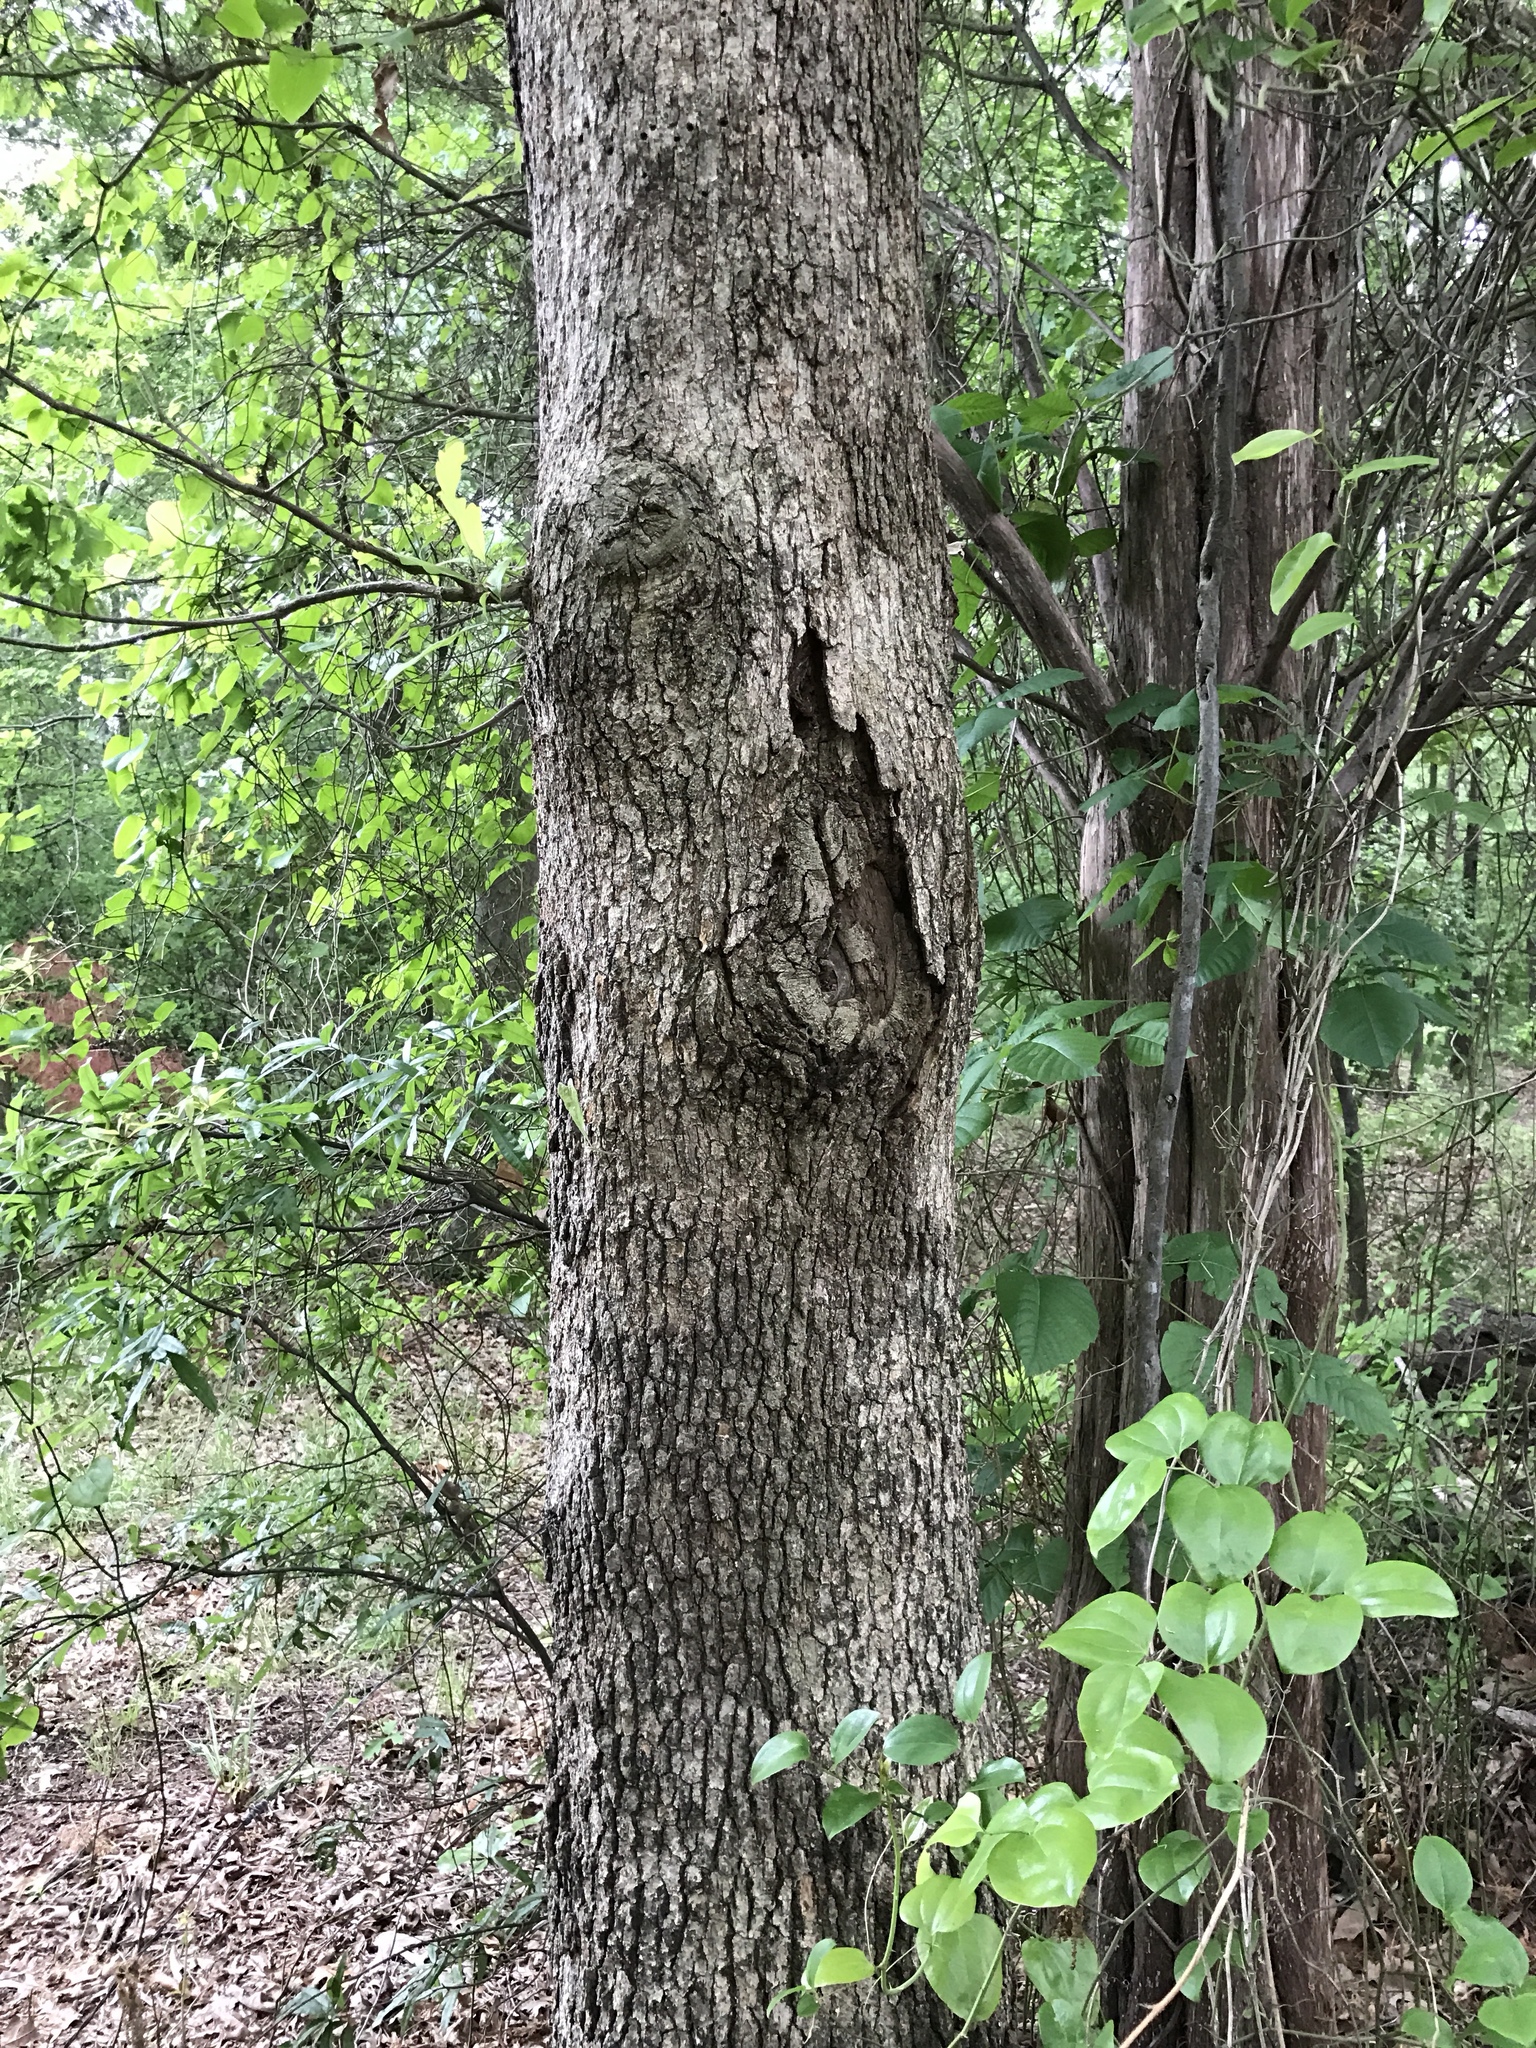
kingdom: Plantae
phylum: Tracheophyta
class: Magnoliopsida
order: Fagales
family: Fagaceae
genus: Quercus
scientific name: Quercus stellata
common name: Post oak
